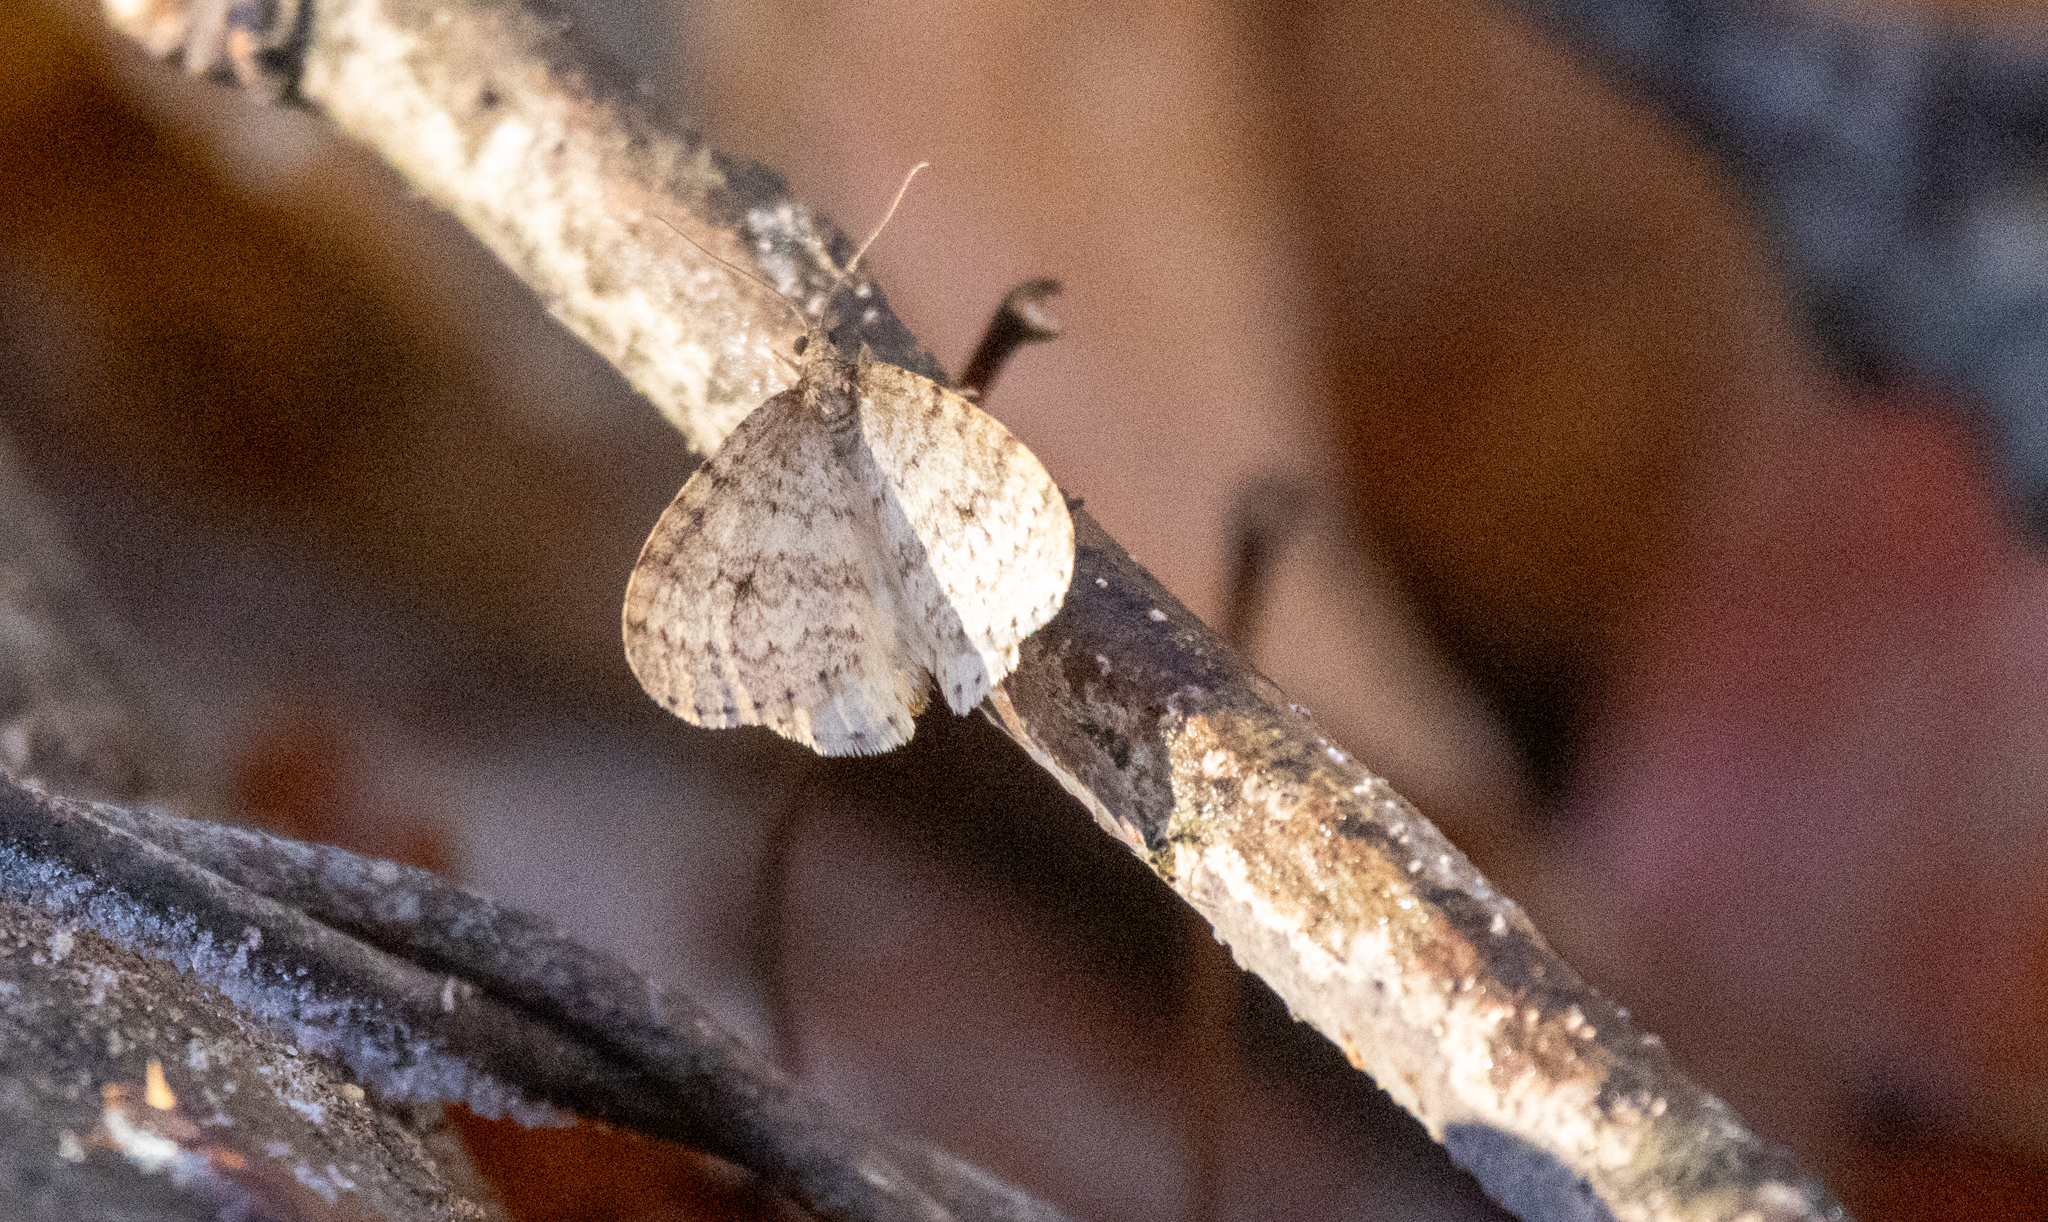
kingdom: Animalia
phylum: Arthropoda
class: Insecta
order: Lepidoptera
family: Geometridae
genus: Operophtera
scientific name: Operophtera bruceata
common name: Bruce spanworm
